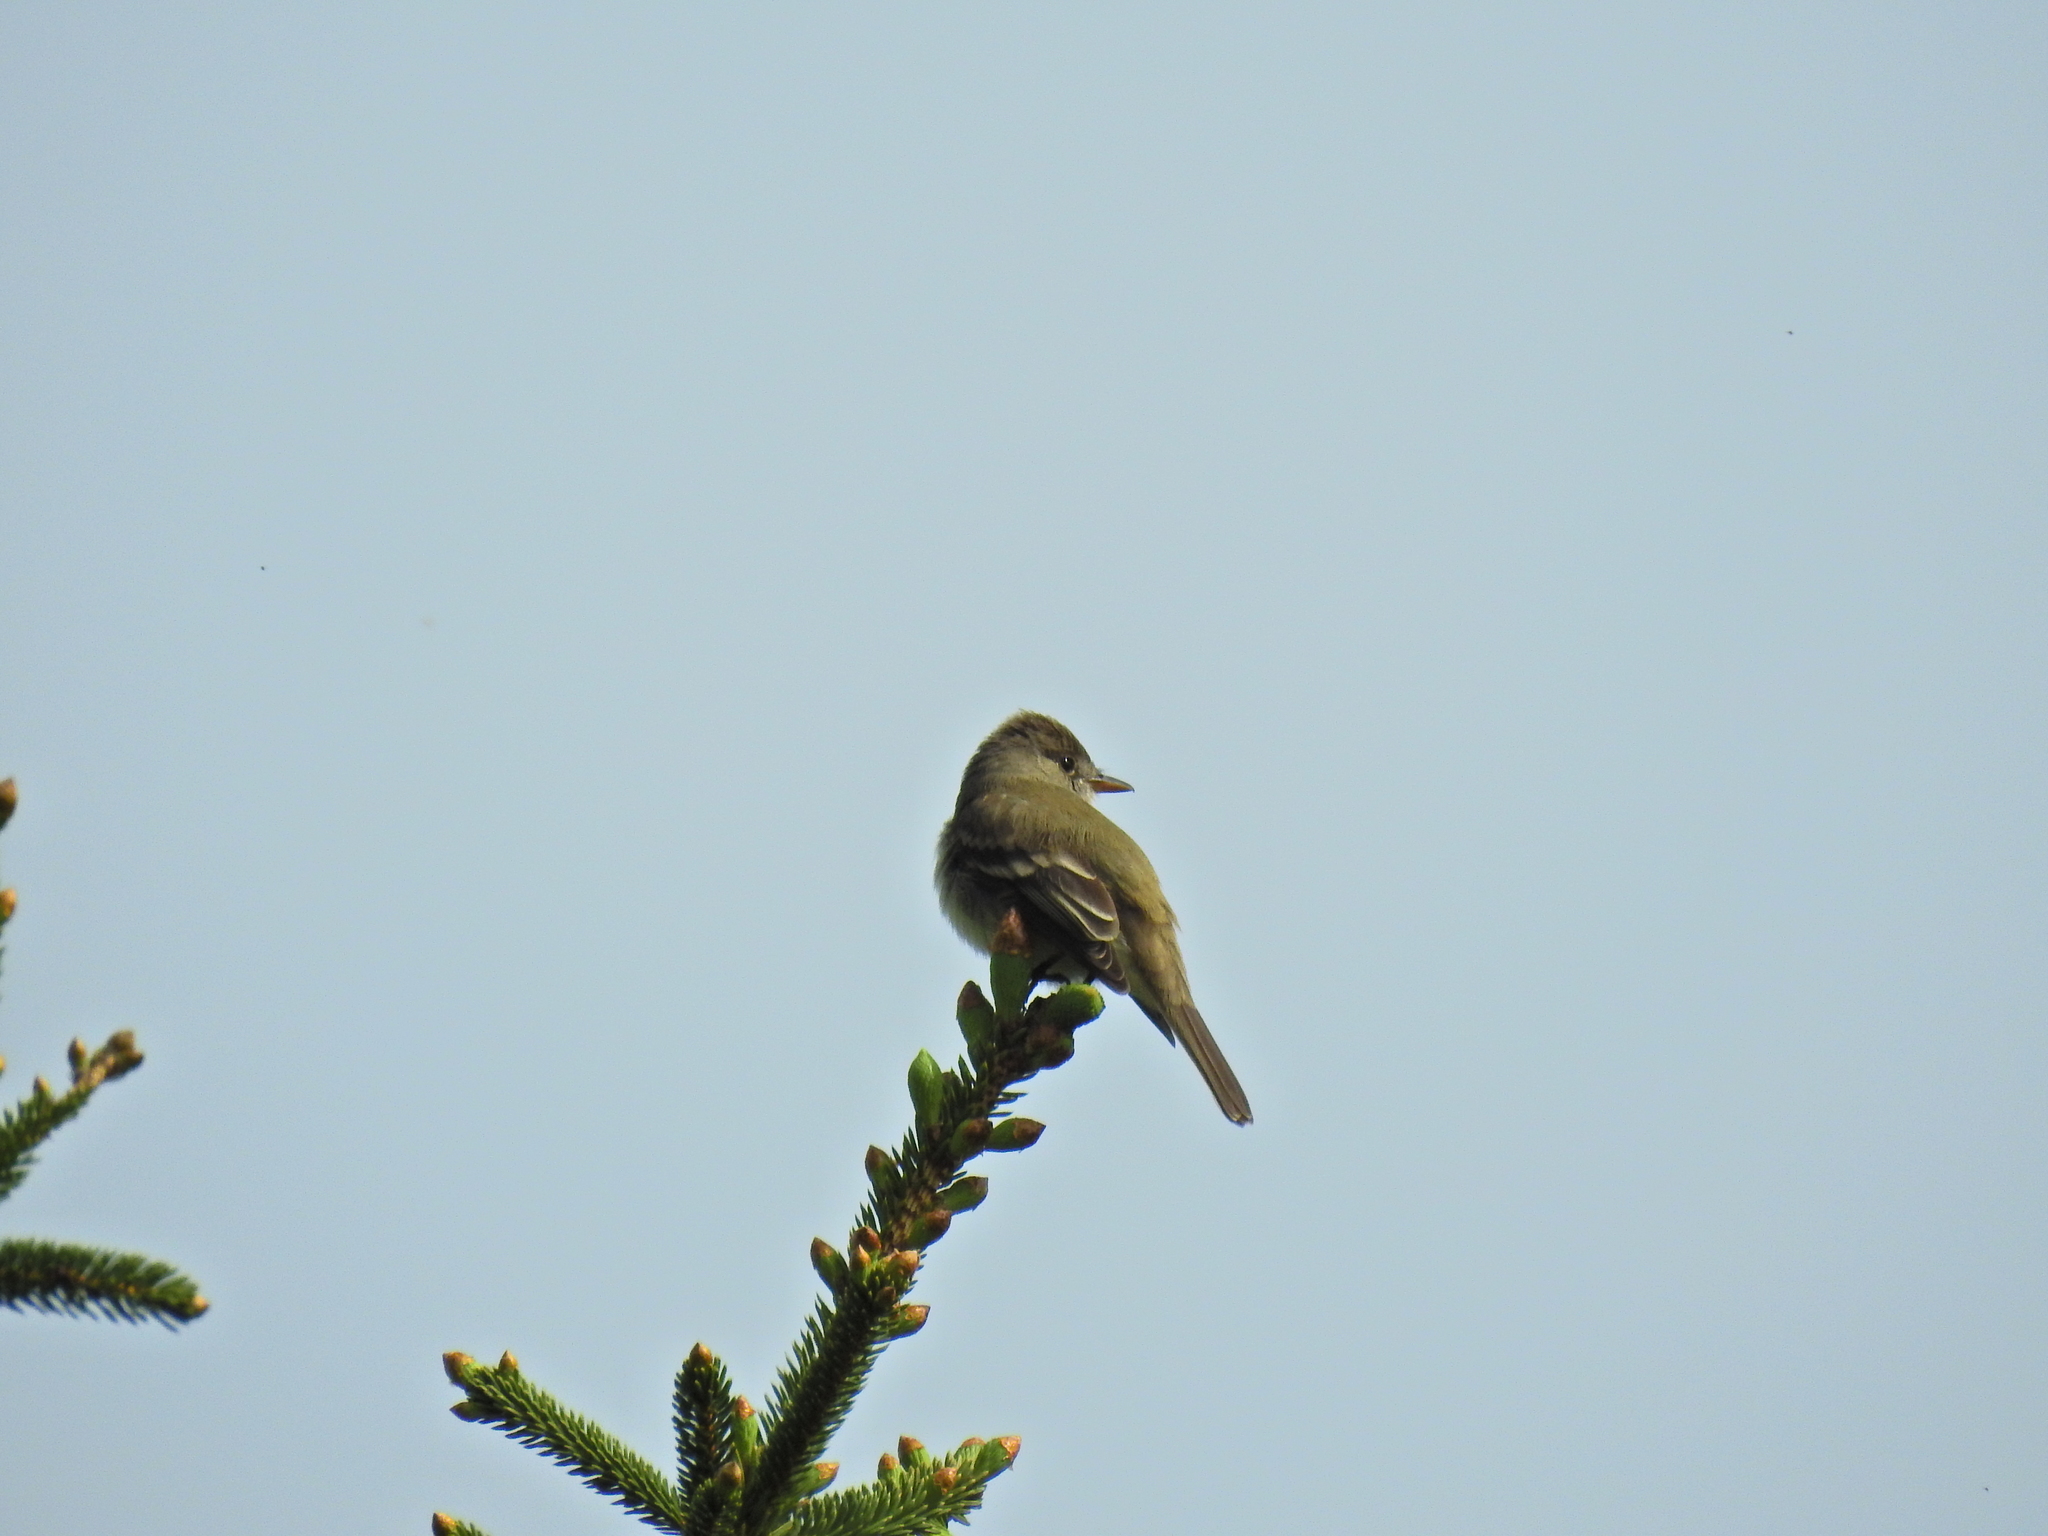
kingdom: Animalia
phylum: Chordata
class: Aves
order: Passeriformes
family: Tyrannidae
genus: Empidonax
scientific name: Empidonax traillii
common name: Willow flycatcher
